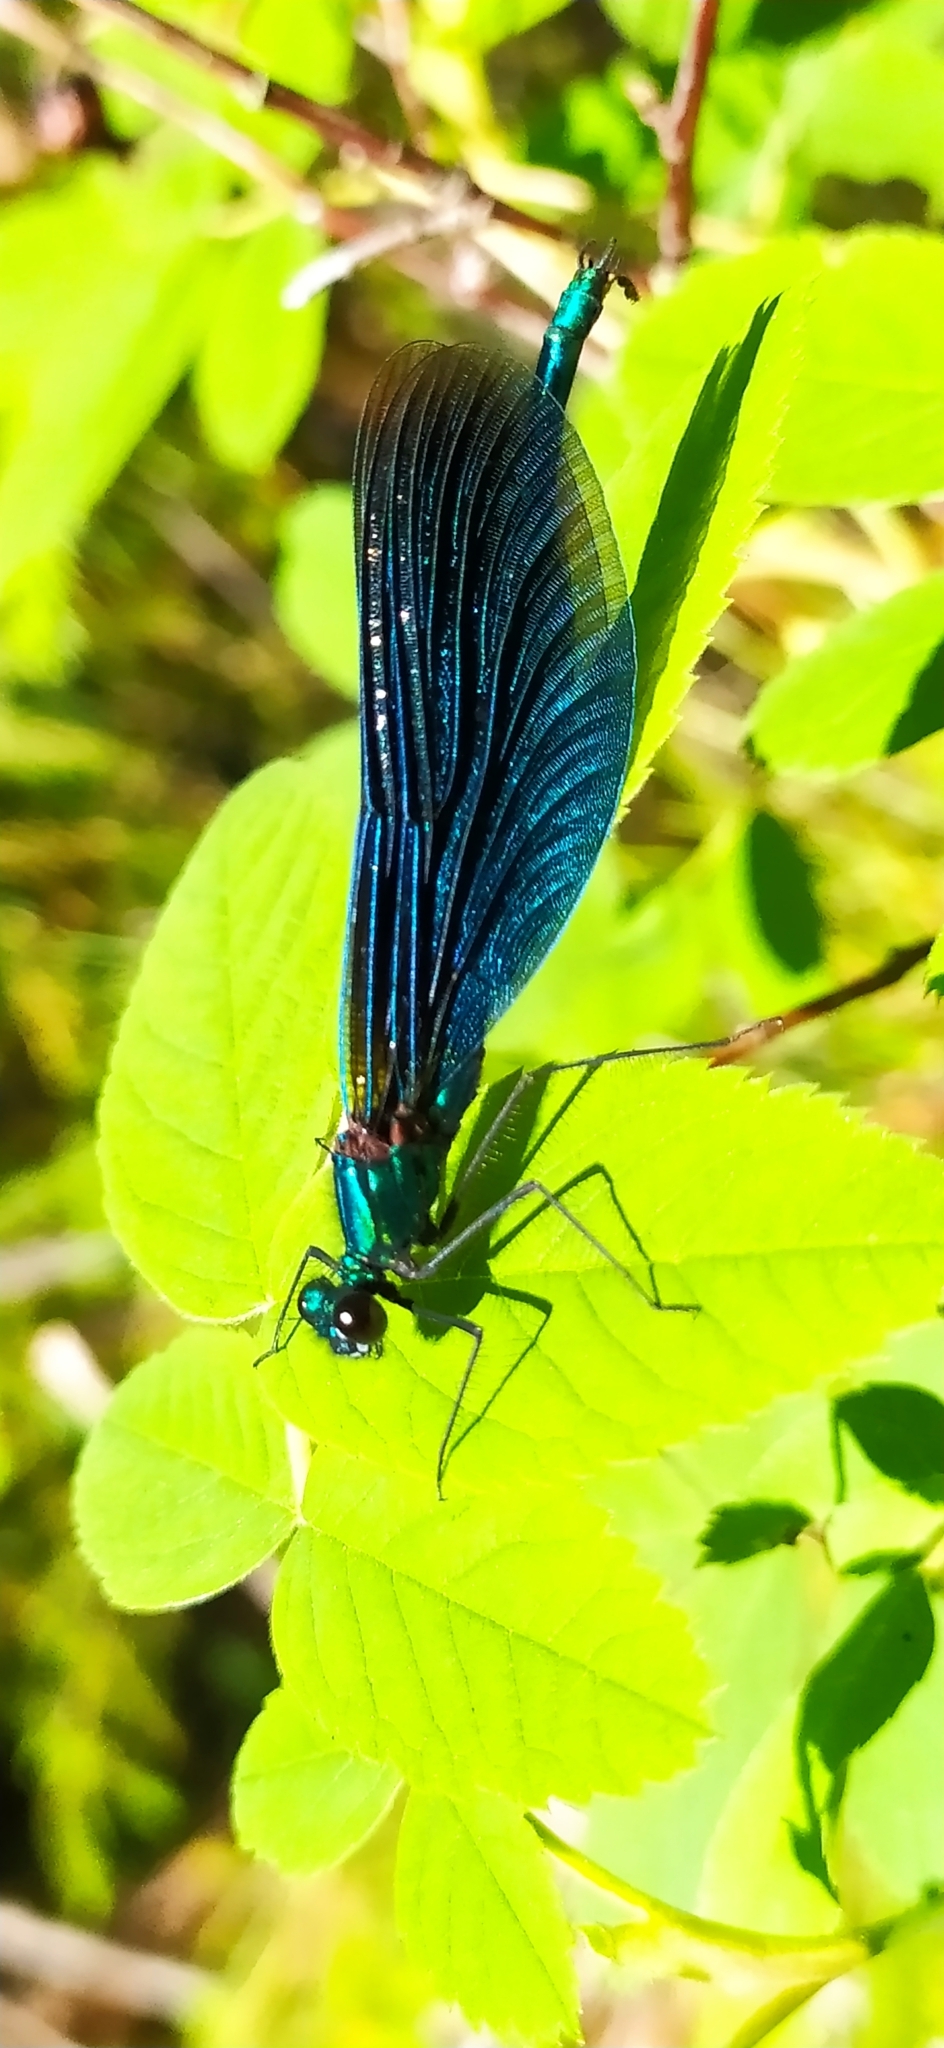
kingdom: Animalia
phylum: Arthropoda
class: Insecta
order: Odonata
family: Calopterygidae
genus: Calopteryx
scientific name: Calopteryx virgo
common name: Beautiful demoiselle
